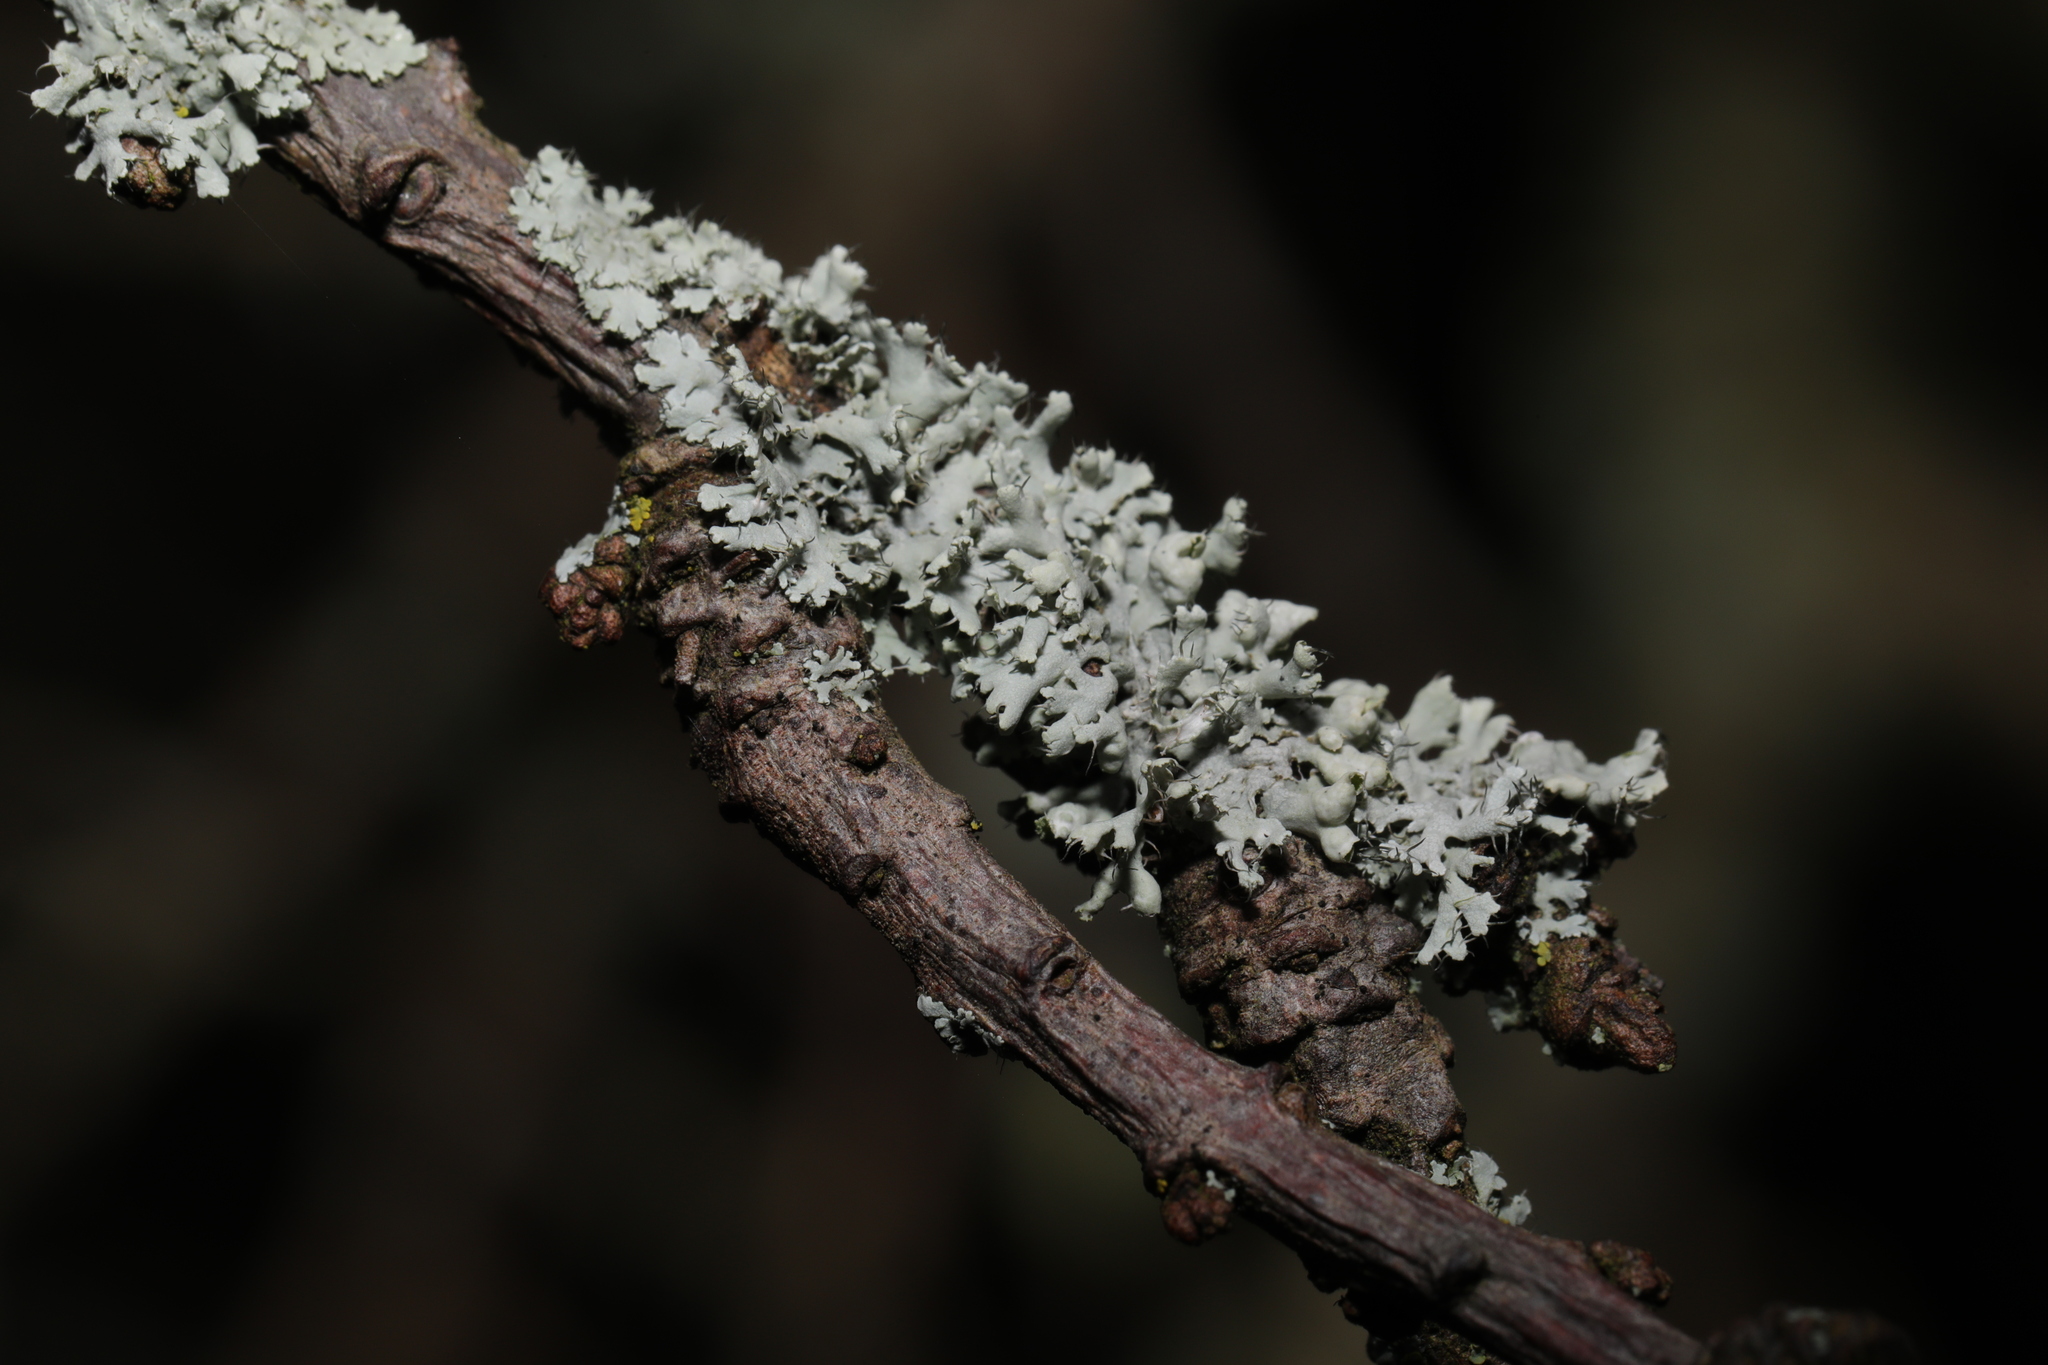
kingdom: Fungi
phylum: Ascomycota
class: Lecanoromycetes
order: Caliciales
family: Physciaceae
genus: Physcia
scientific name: Physcia adscendens
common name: Hooded rosette lichen
